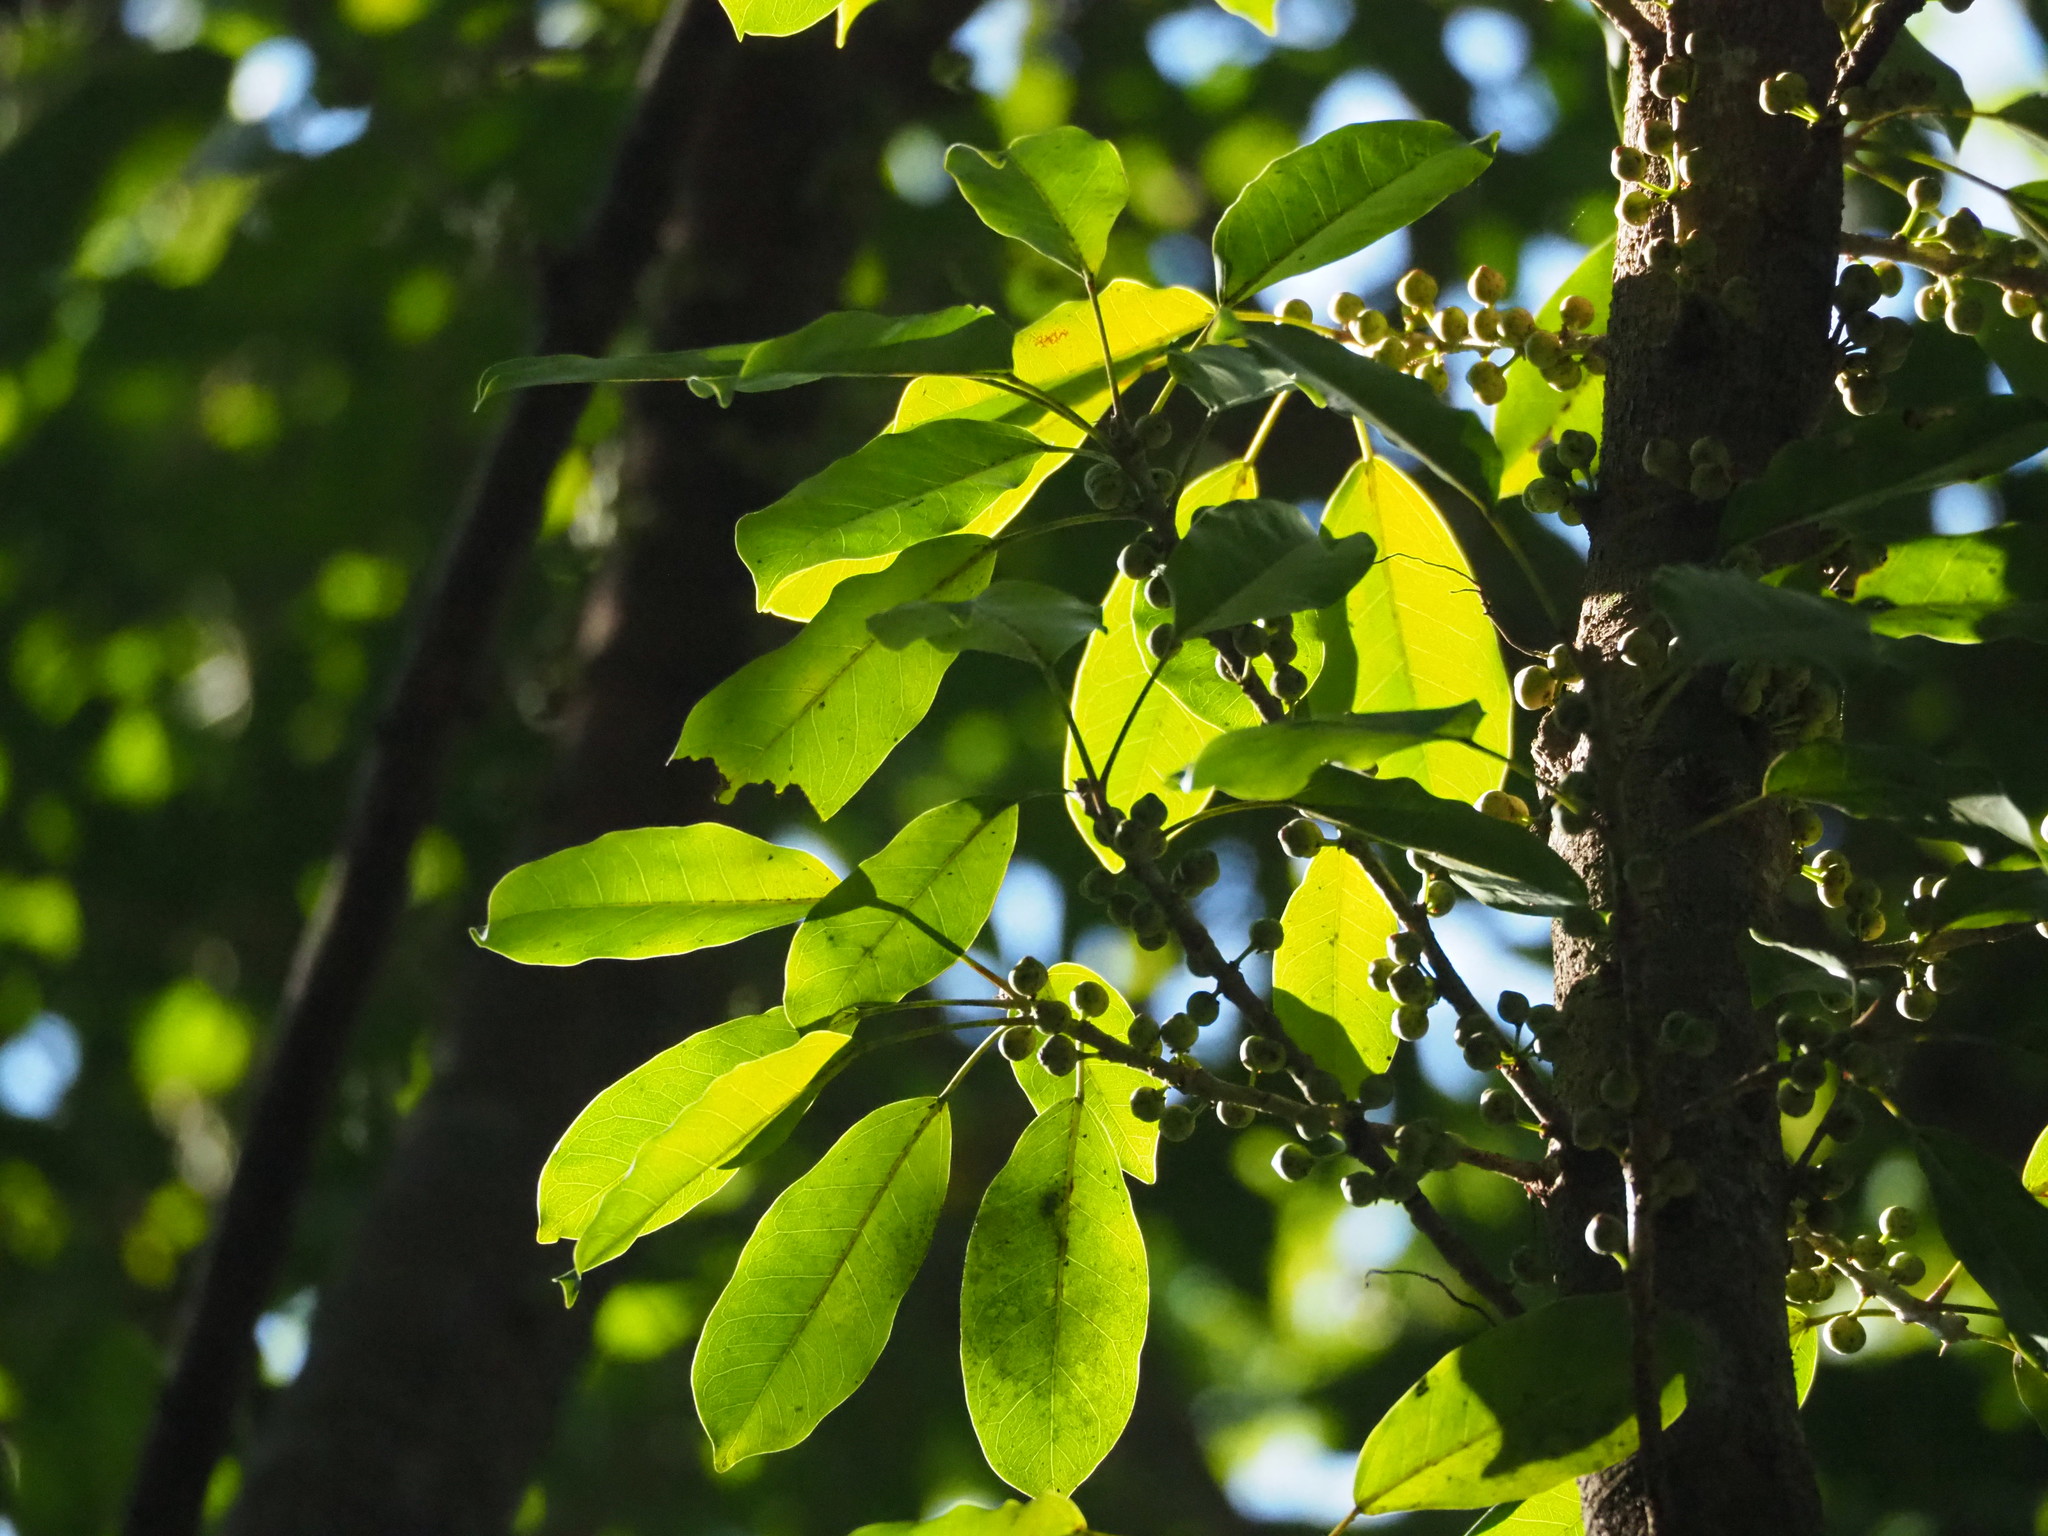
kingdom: Plantae
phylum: Tracheophyta
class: Magnoliopsida
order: Rosales
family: Moraceae
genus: Ficus
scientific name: Ficus subpisocarpa
